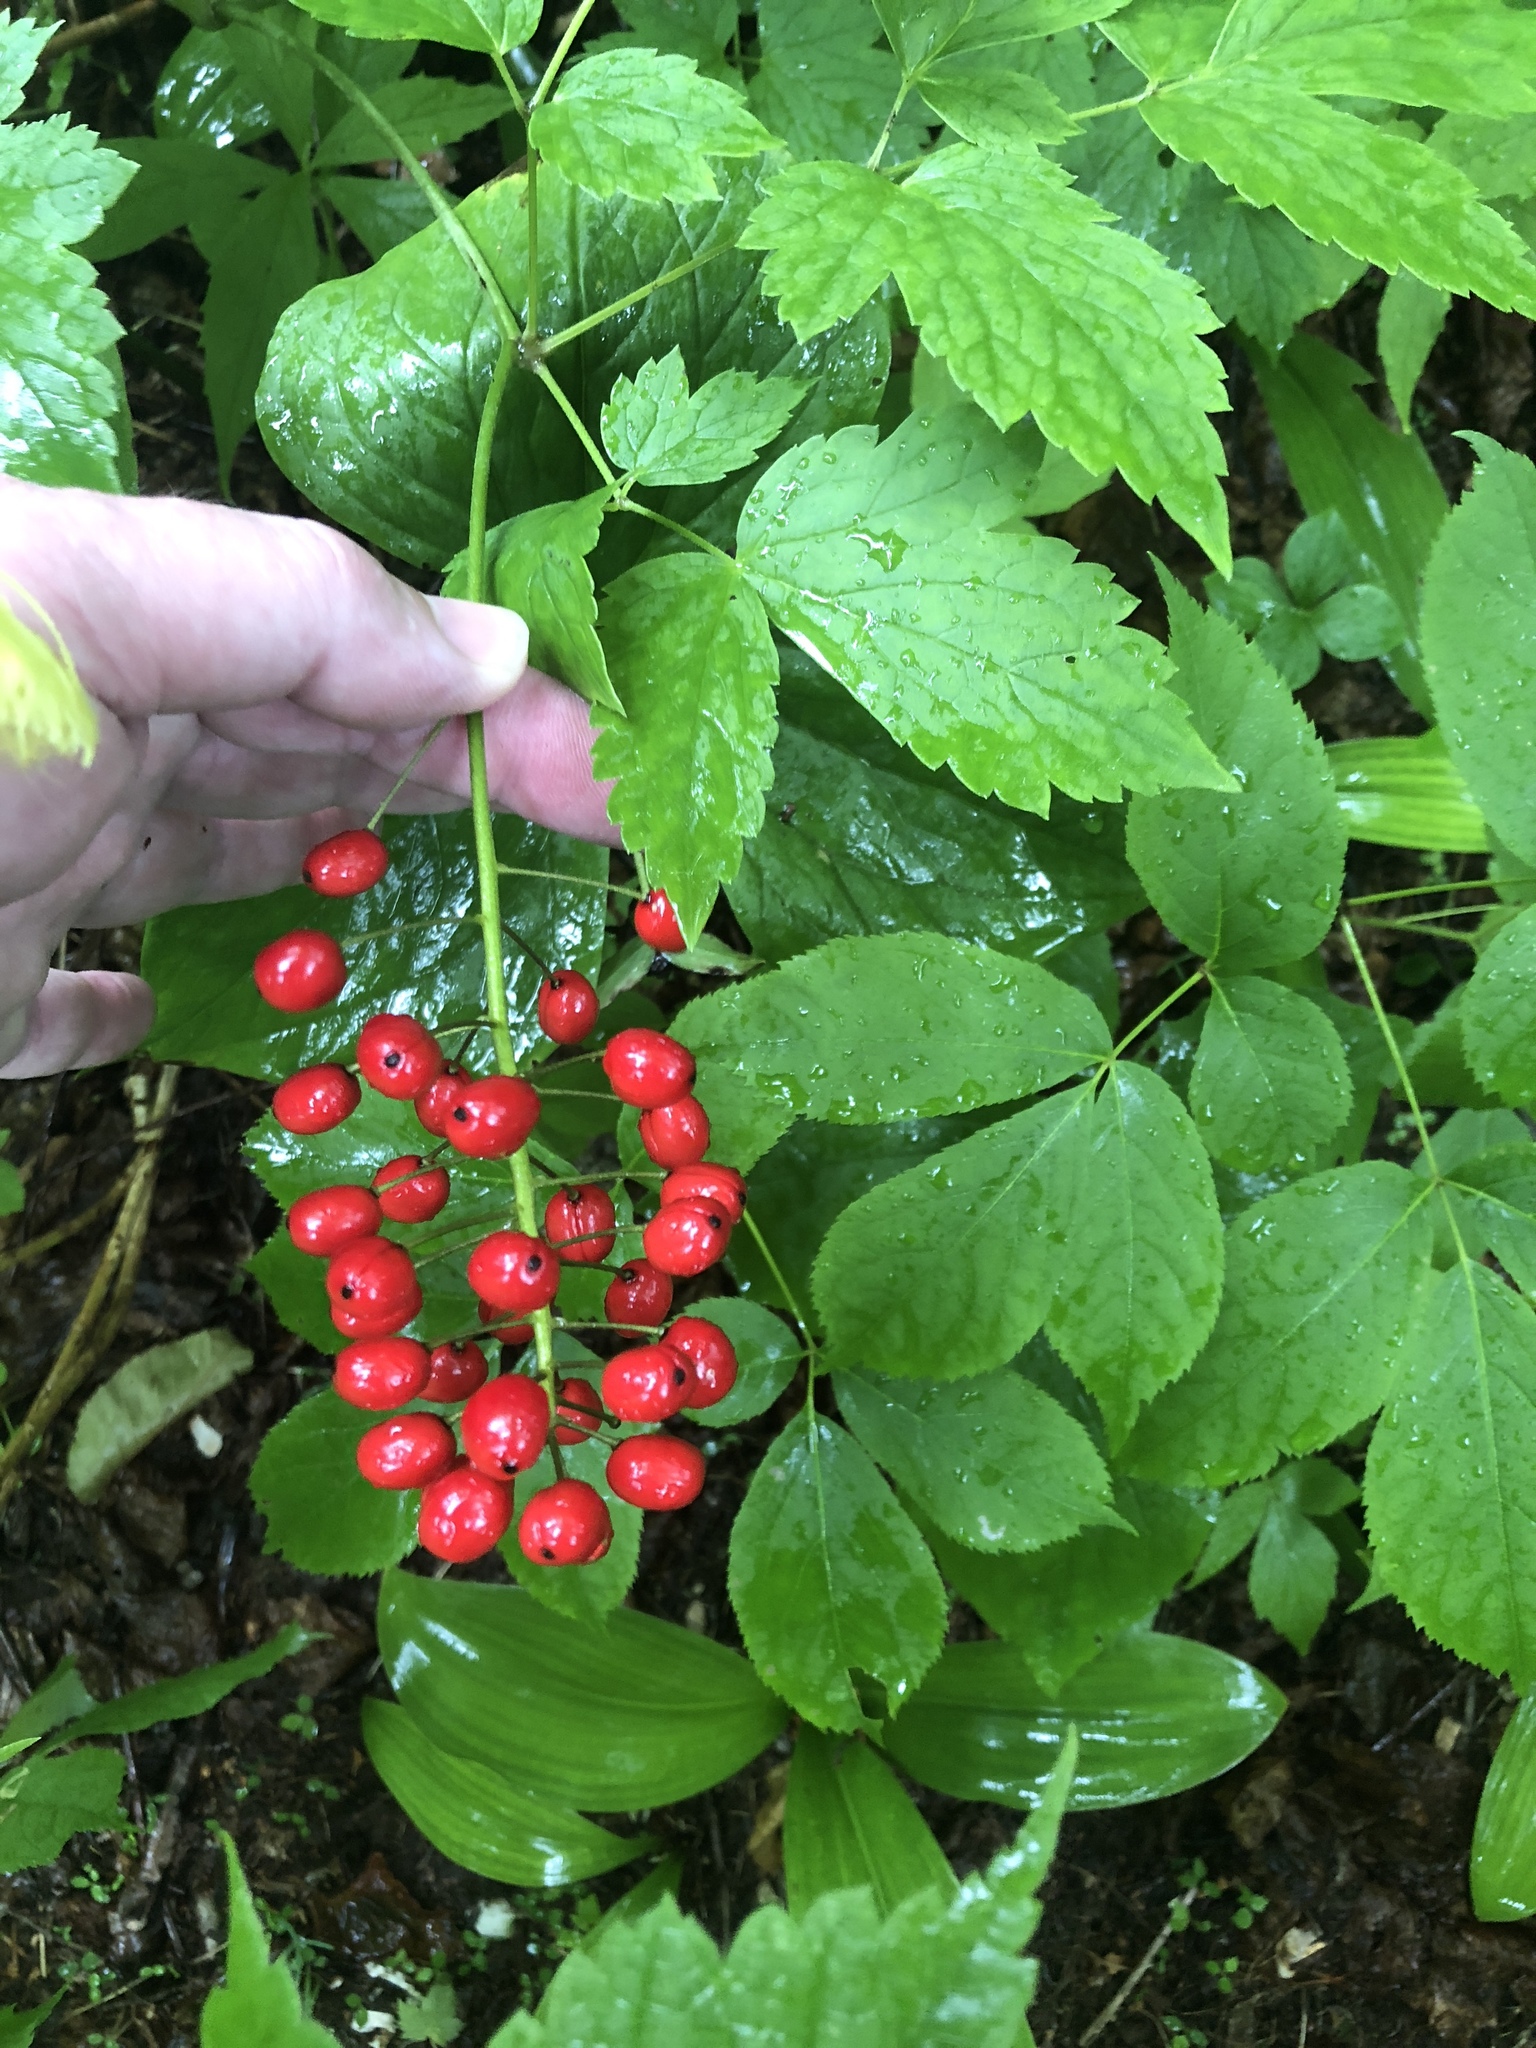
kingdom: Plantae
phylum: Tracheophyta
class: Magnoliopsida
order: Ranunculales
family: Ranunculaceae
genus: Actaea
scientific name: Actaea rubra
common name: Red baneberry
